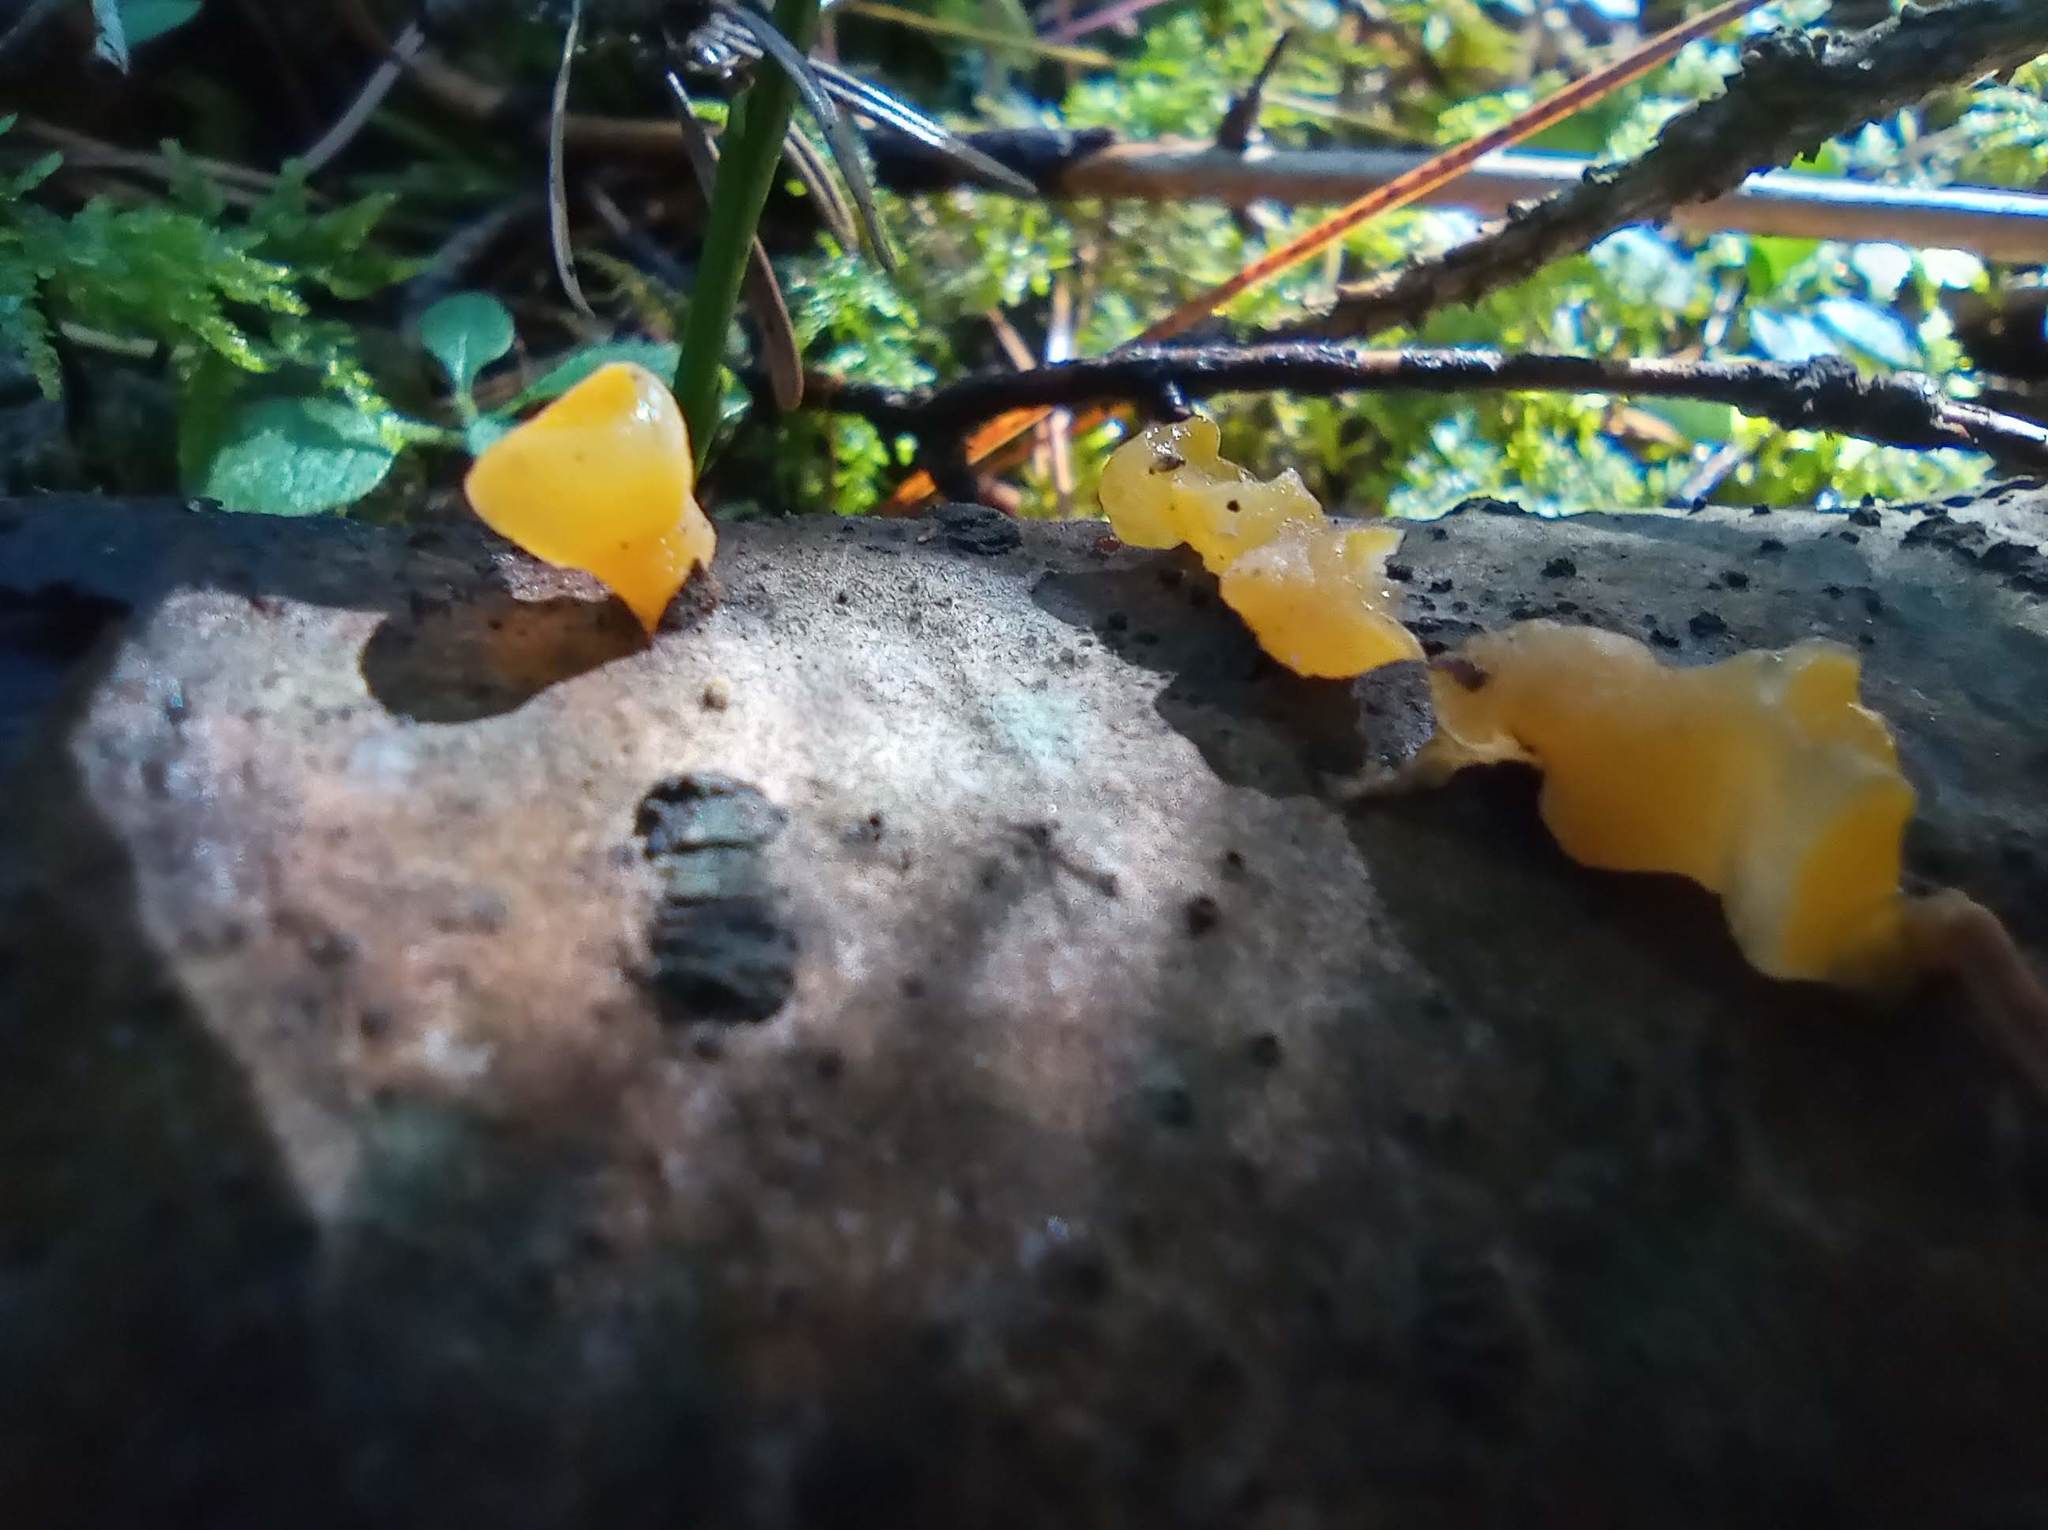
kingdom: Fungi
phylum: Basidiomycota
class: Tremellomycetes
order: Tremellales
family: Tremellaceae
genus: Tremella
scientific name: Tremella mesenterica
